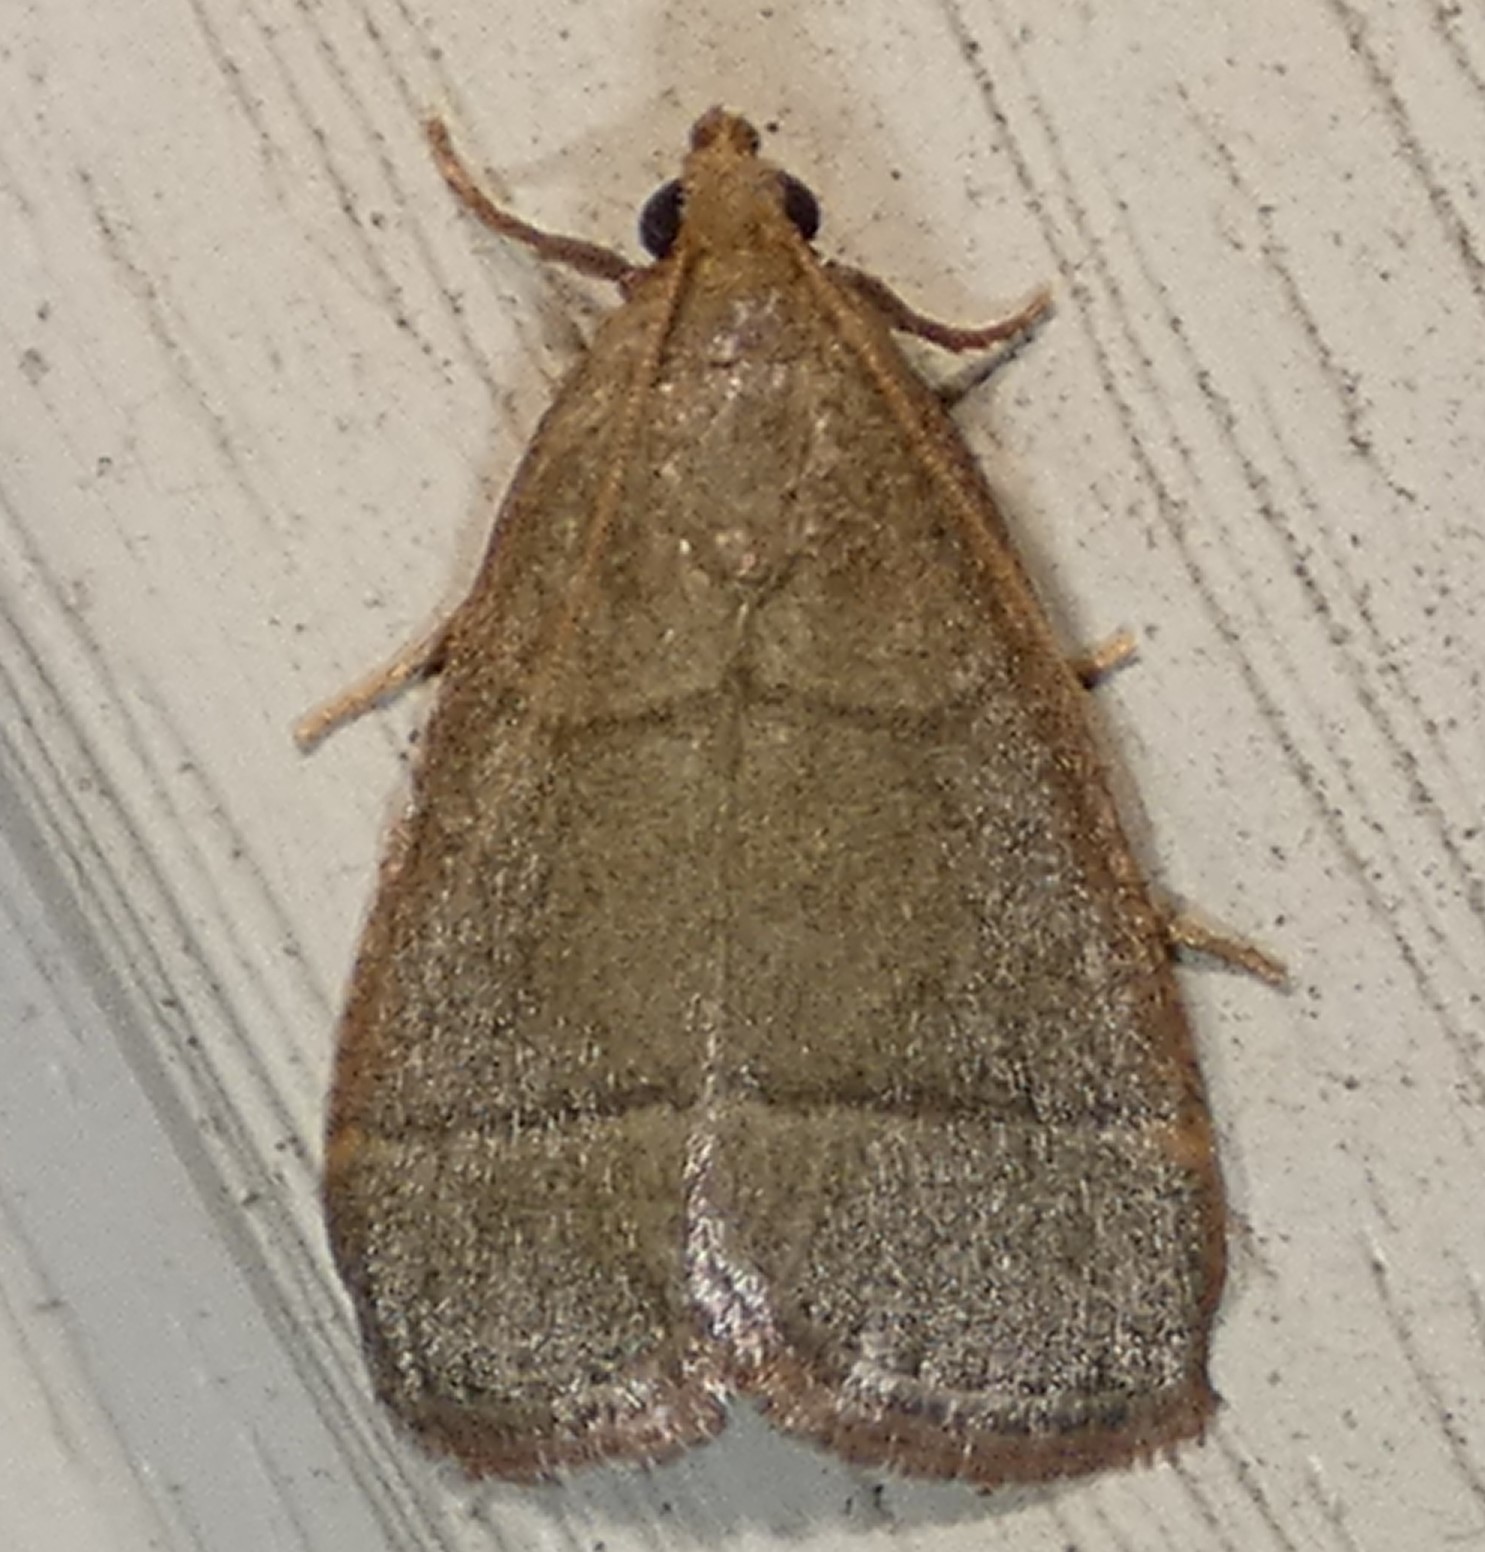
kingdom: Animalia
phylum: Arthropoda
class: Insecta
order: Lepidoptera
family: Pyralidae
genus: Hypsopygia
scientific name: Hypsopygia nostralis
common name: Southern hayworm moth
